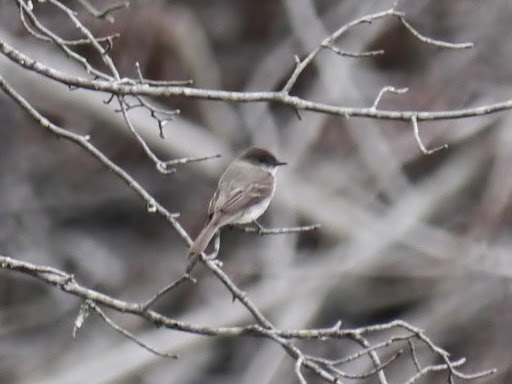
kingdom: Animalia
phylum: Chordata
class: Aves
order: Passeriformes
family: Tyrannidae
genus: Sayornis
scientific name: Sayornis phoebe
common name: Eastern phoebe
